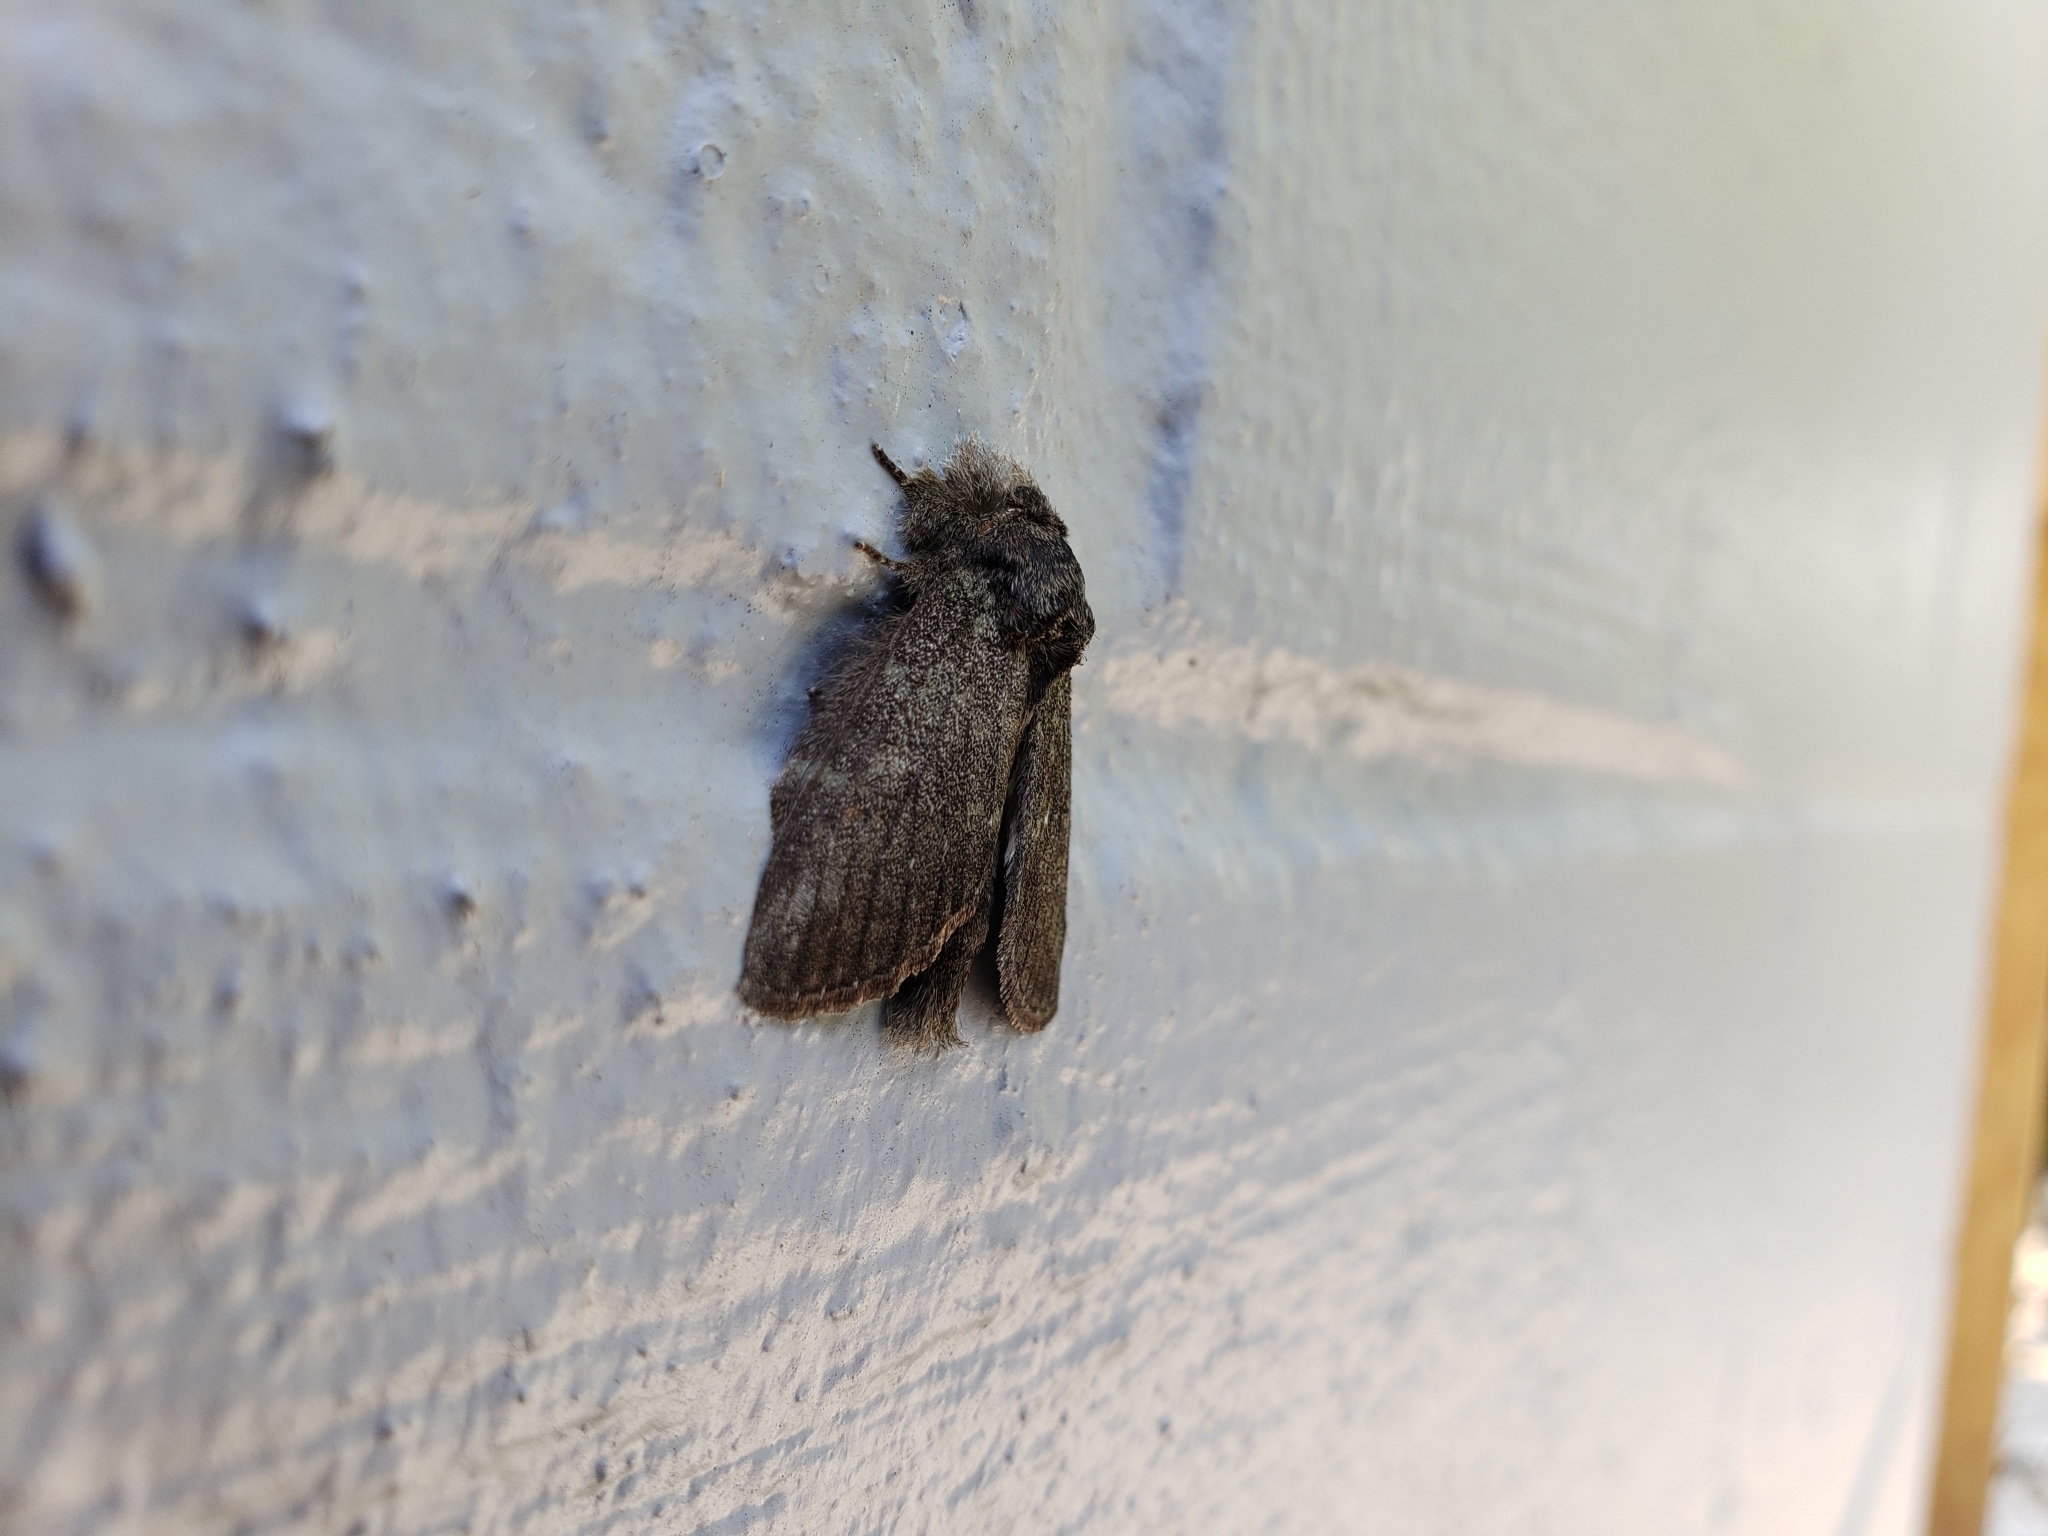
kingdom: Animalia
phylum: Arthropoda
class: Insecta
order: Lepidoptera
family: Notodontidae
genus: Disphragis
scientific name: Disphragis Cecrita guttivitta
